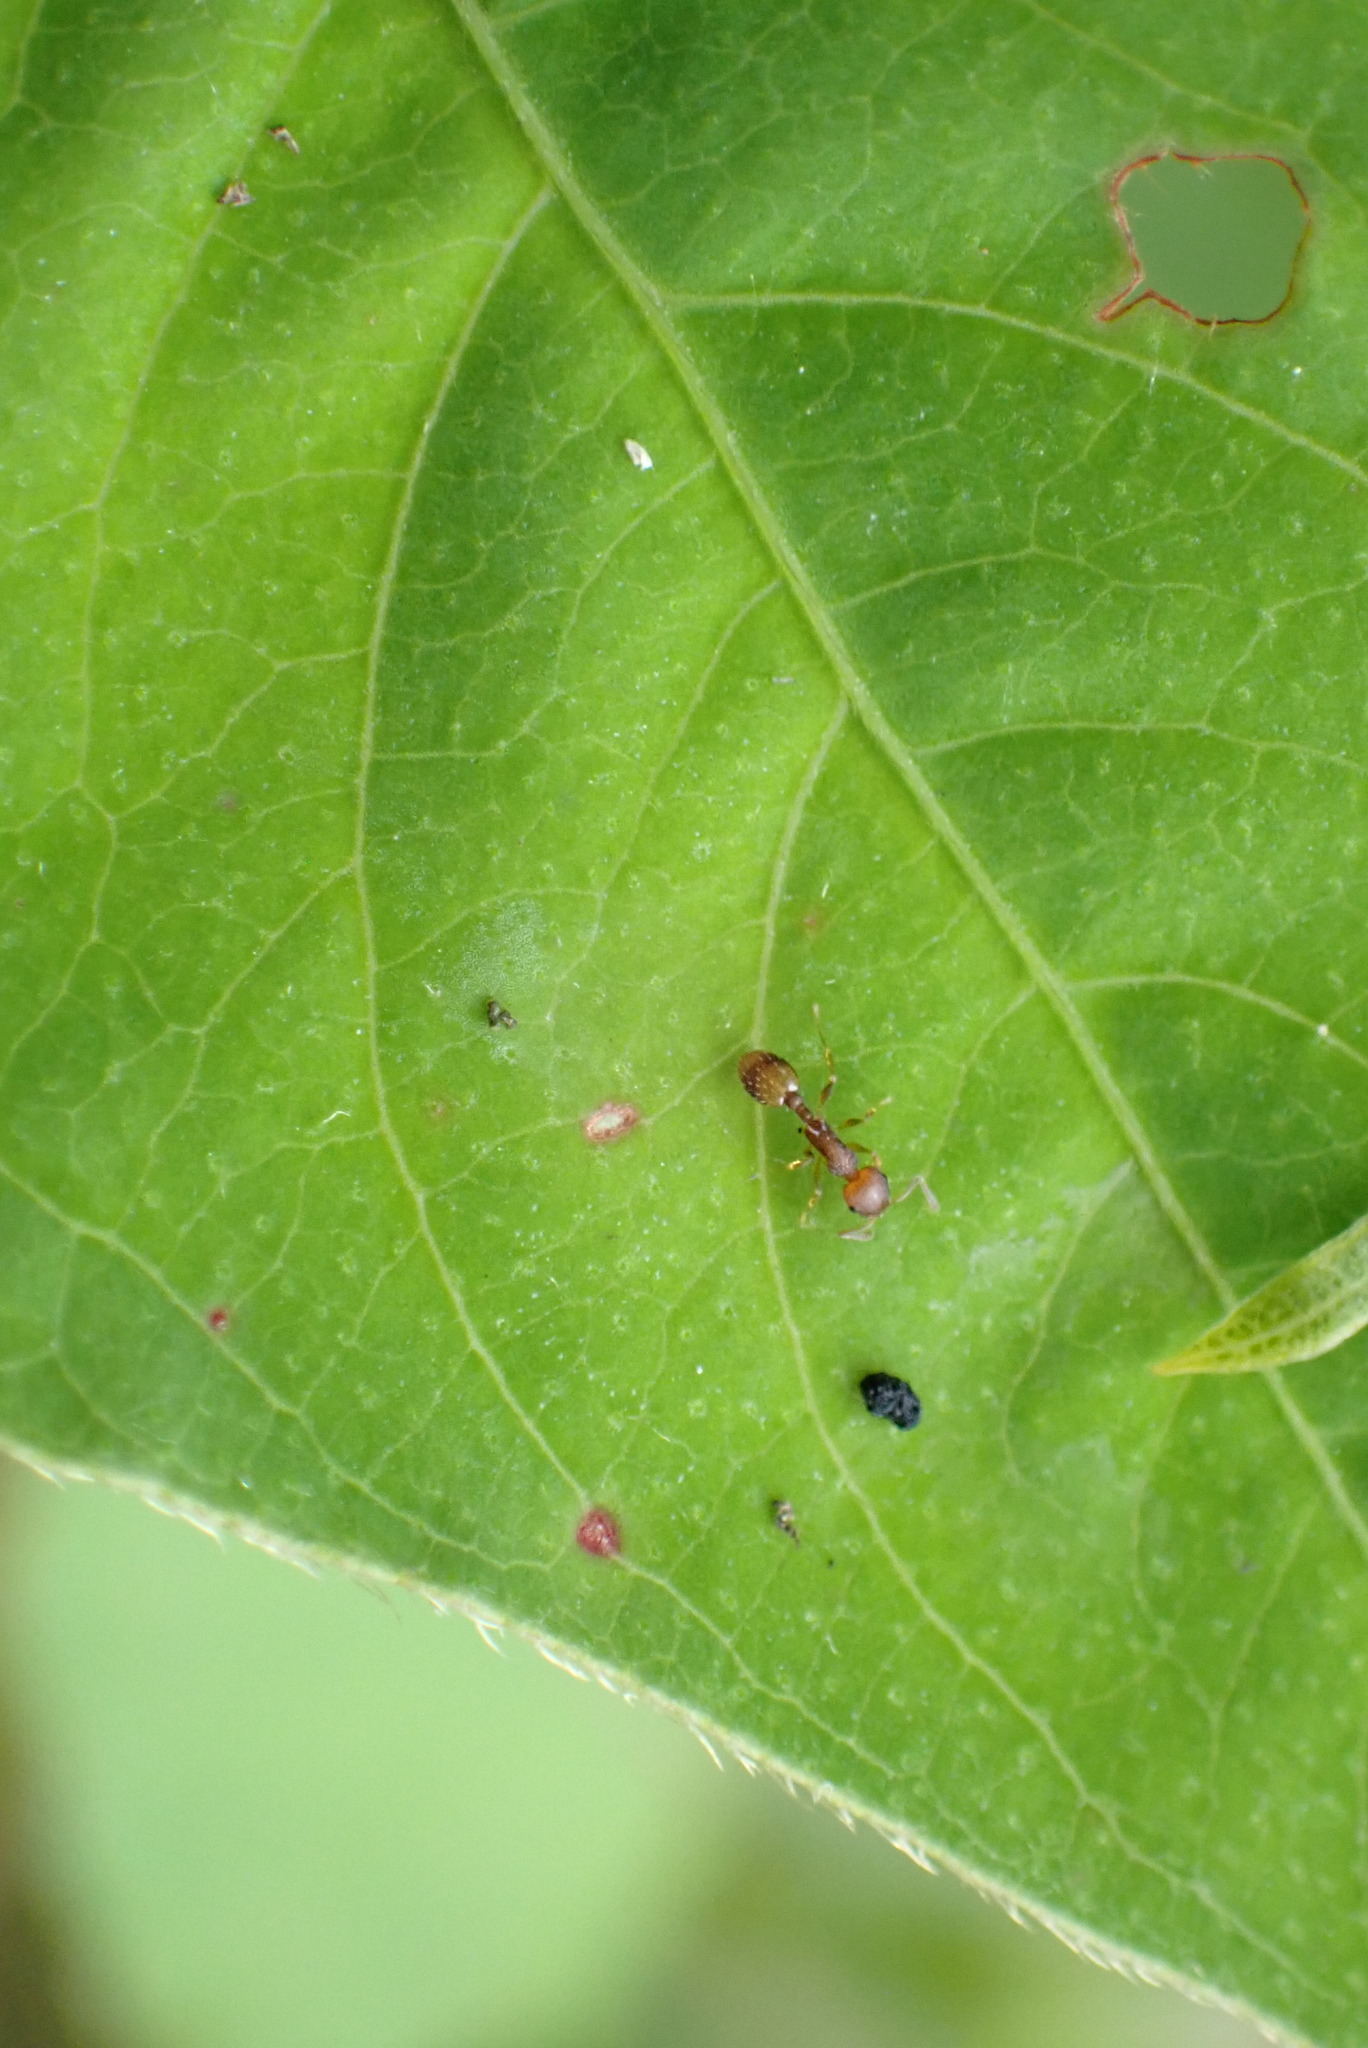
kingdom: Animalia
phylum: Arthropoda
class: Insecta
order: Hymenoptera
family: Formicidae
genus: Temnothorax
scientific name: Temnothorax curvispinosus
